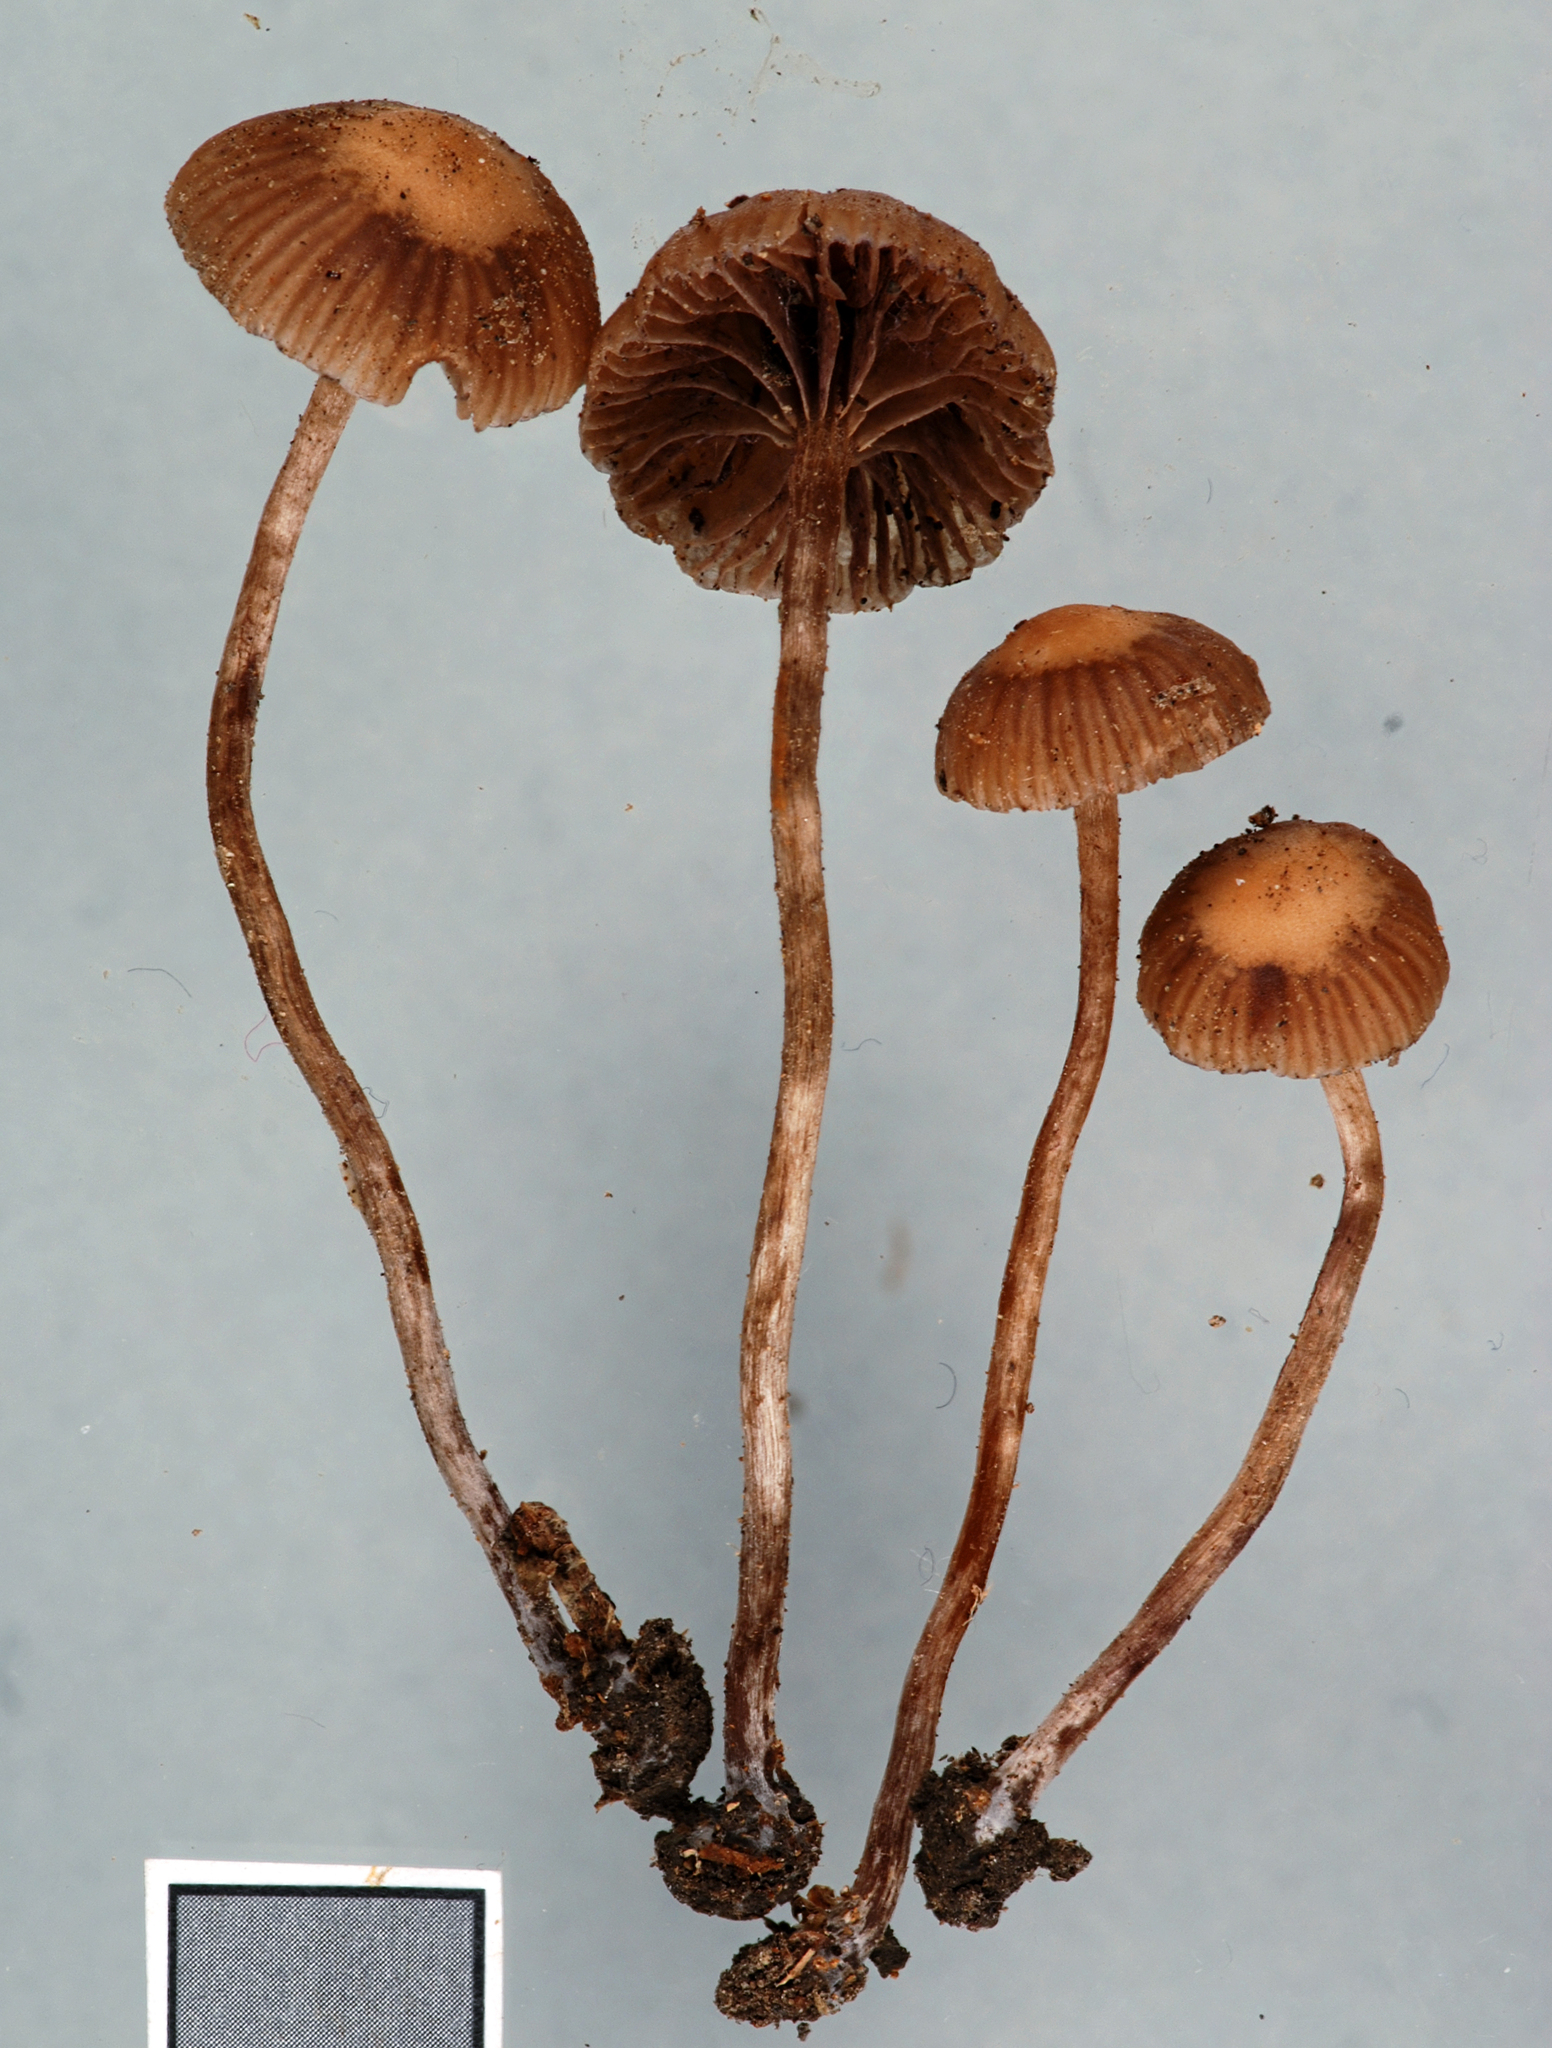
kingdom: Fungi
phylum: Basidiomycota
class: Agaricomycetes
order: Agaricales
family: Strophariaceae
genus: Deconica
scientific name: Deconica novae-zelandiae
